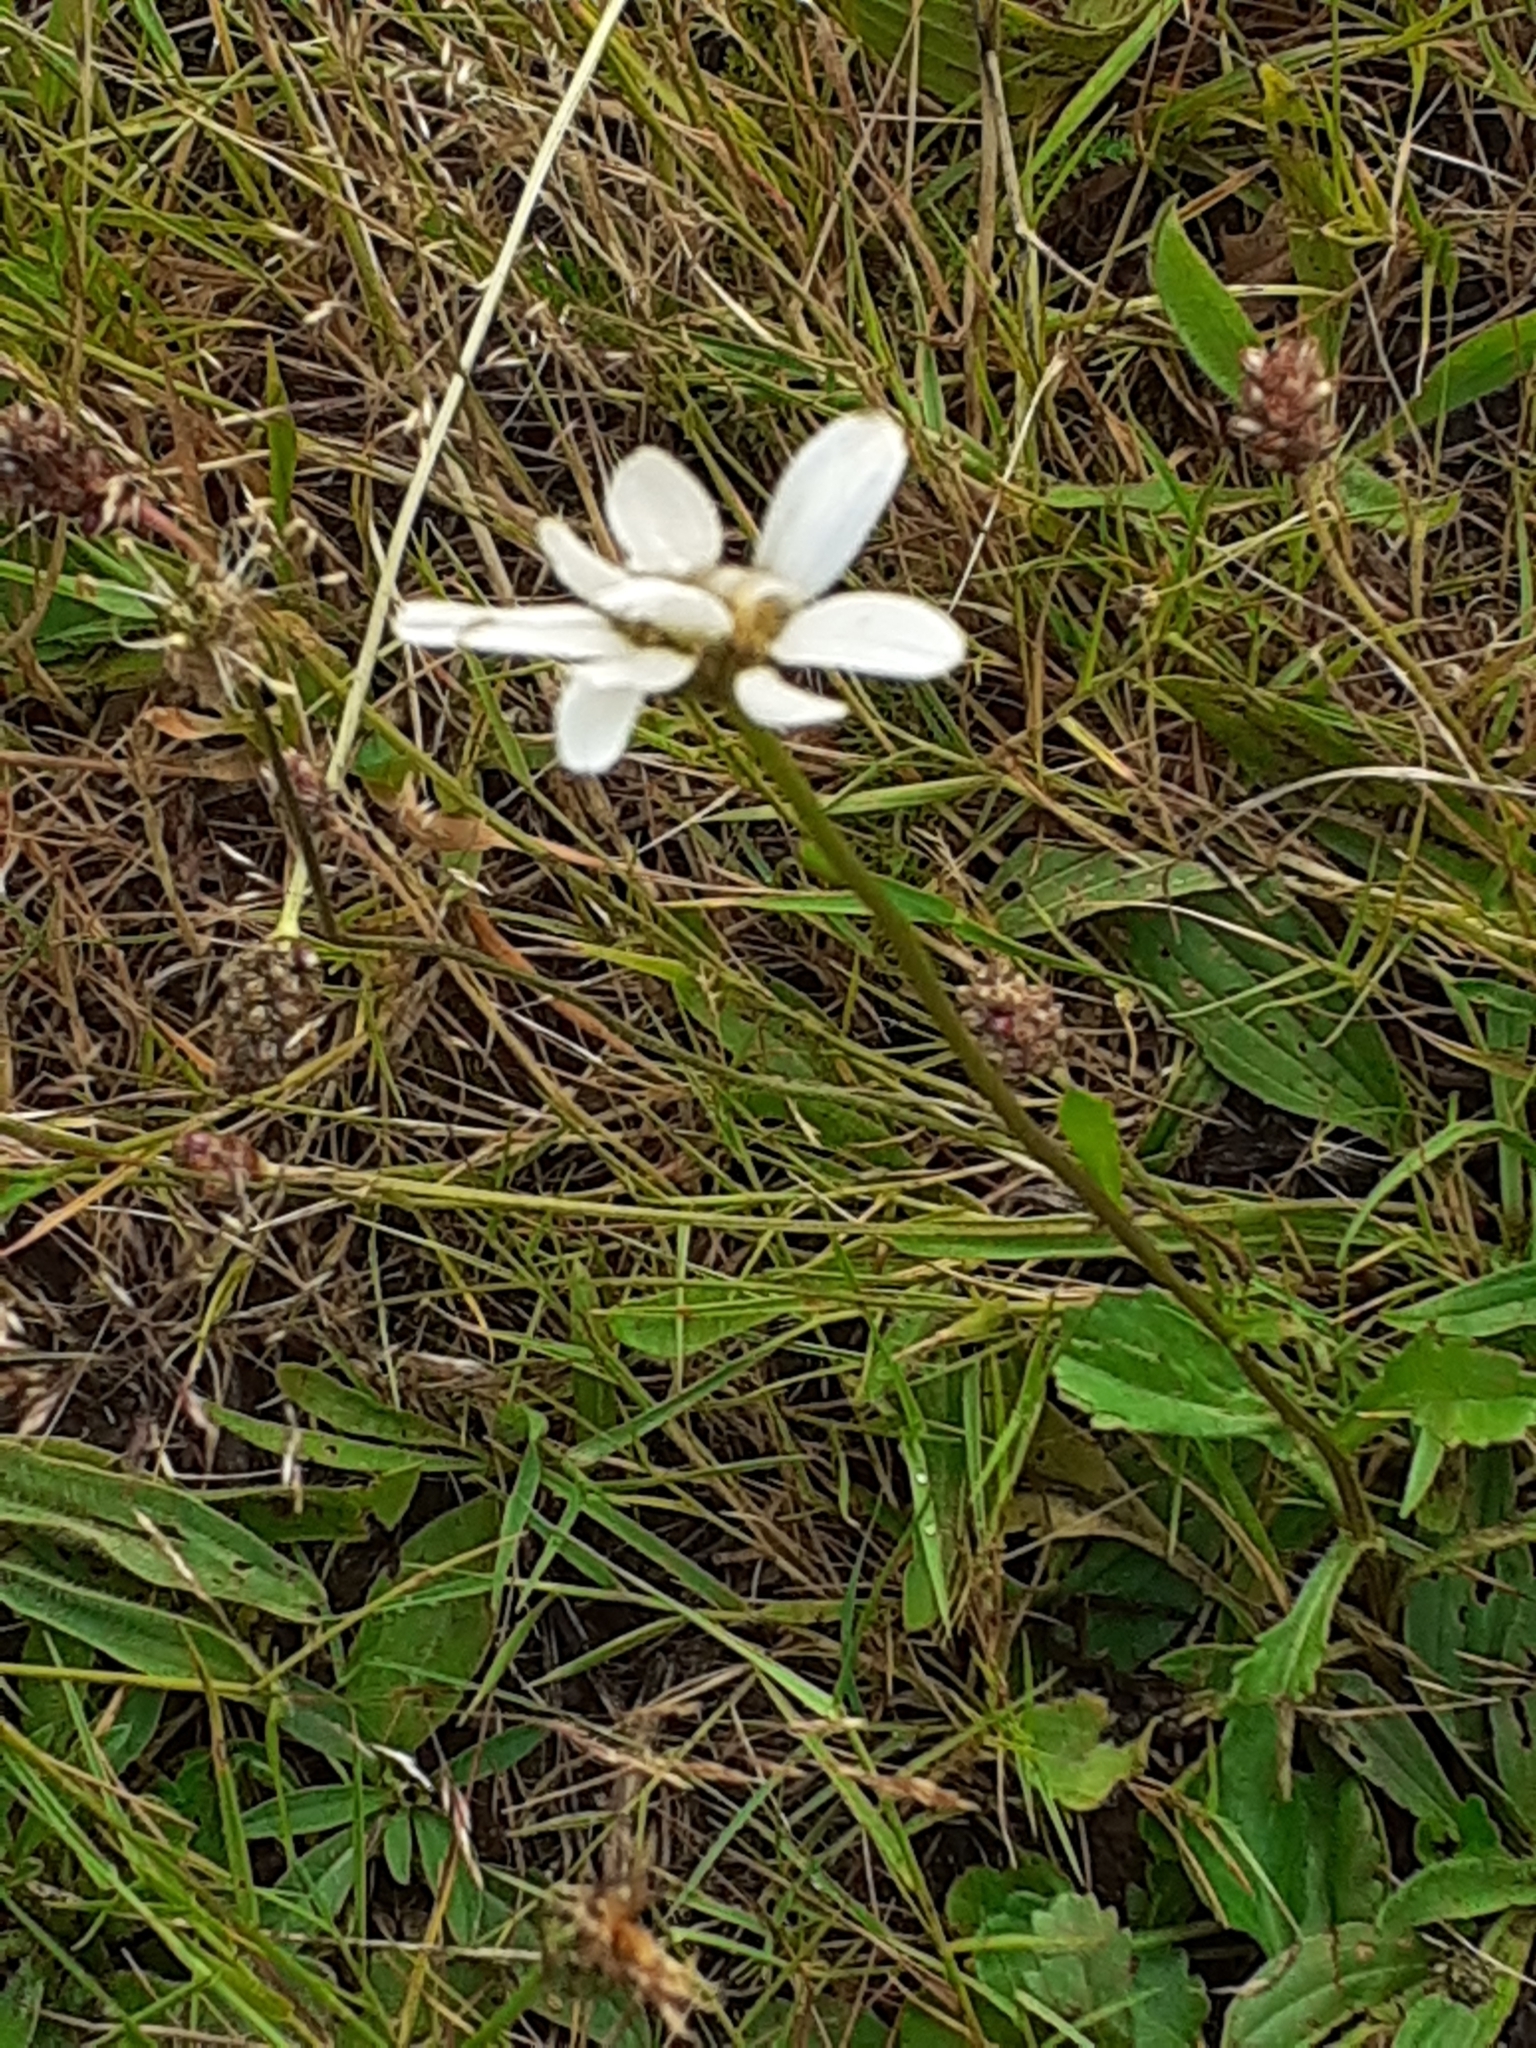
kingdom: Plantae
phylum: Tracheophyta
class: Magnoliopsida
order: Asterales
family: Asteraceae
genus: Leucanthemum
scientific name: Leucanthemum vulgare
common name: Oxeye daisy
